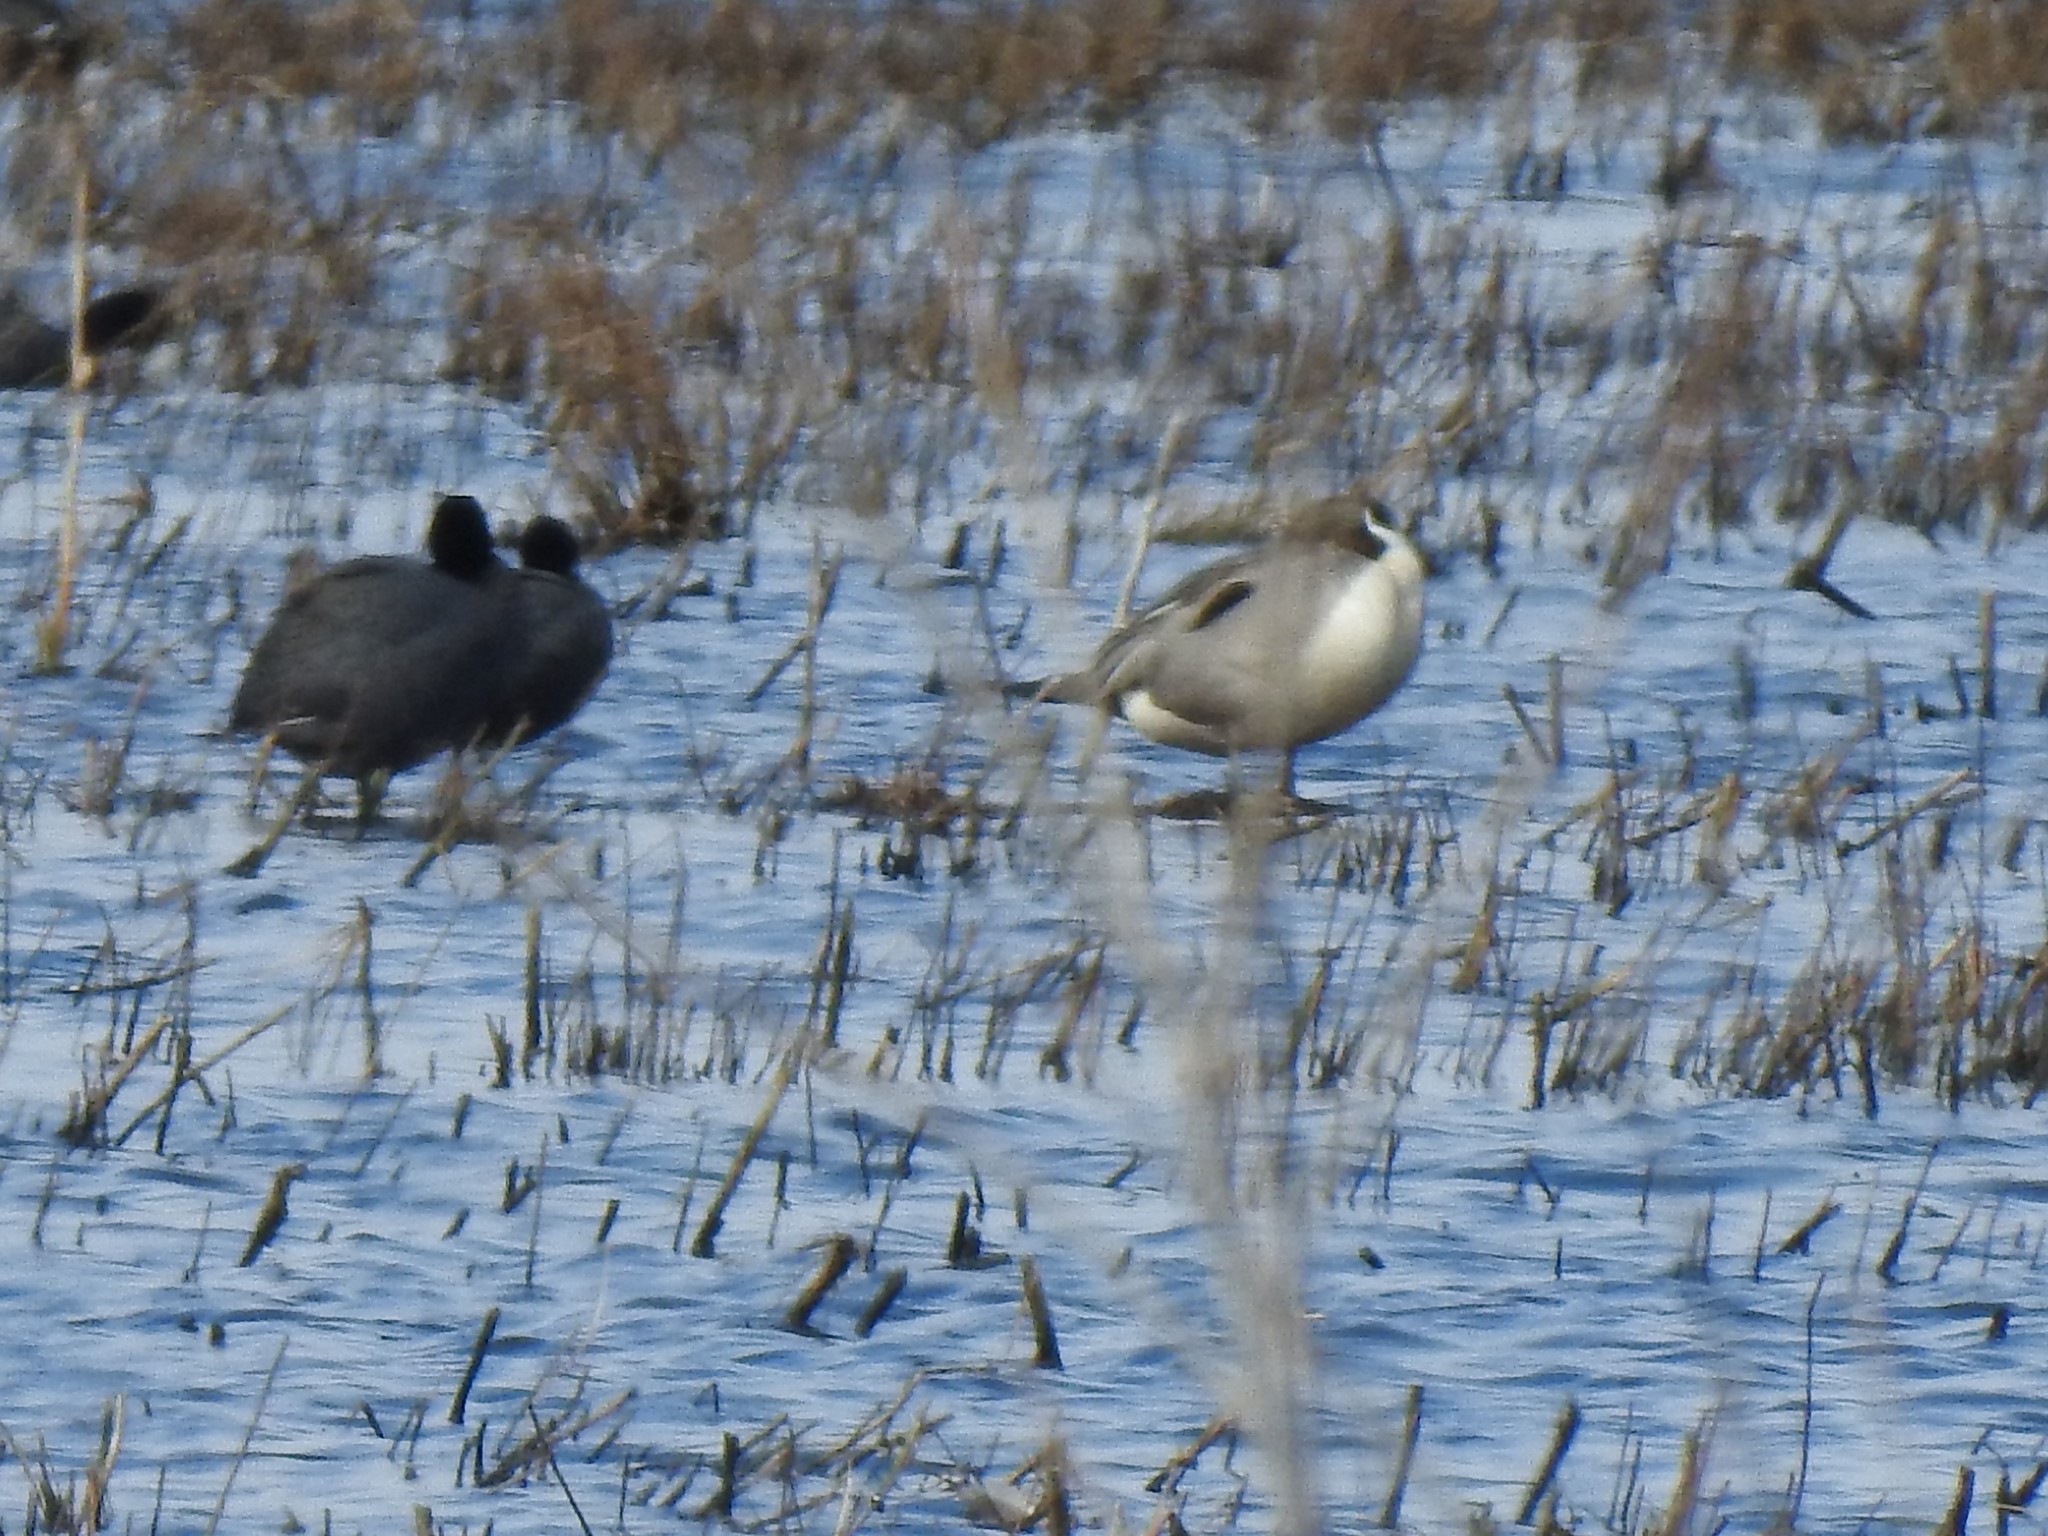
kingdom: Animalia
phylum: Chordata
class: Aves
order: Anseriformes
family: Anatidae
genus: Anas
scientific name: Anas acuta
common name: Northern pintail
